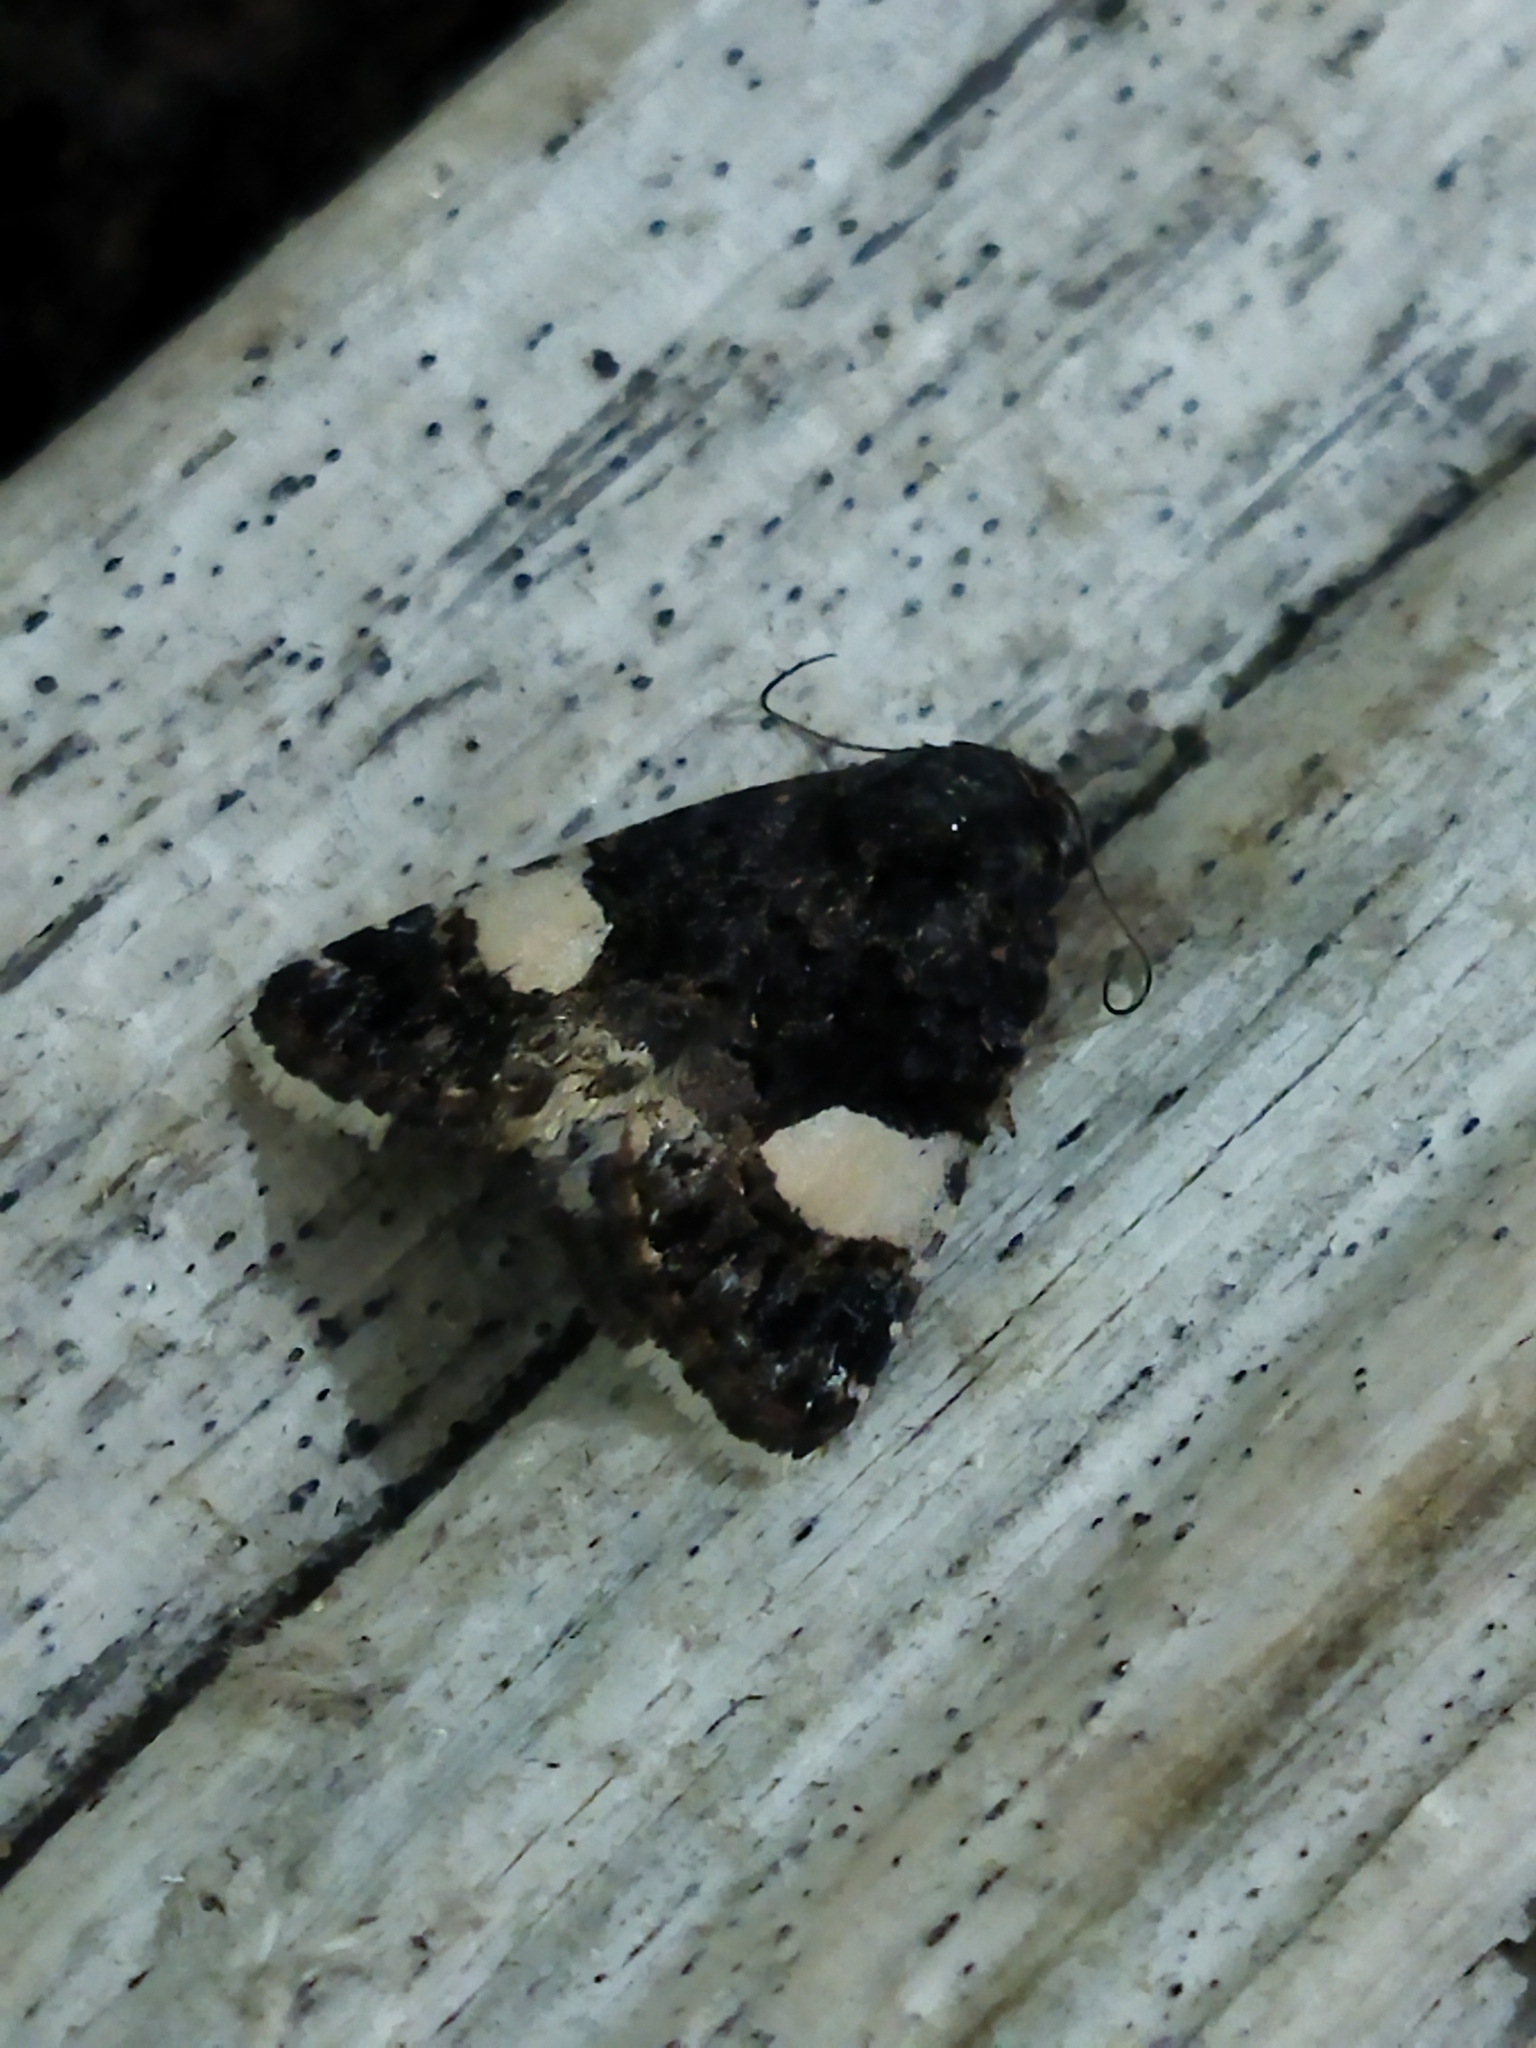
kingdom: Animalia
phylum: Arthropoda
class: Insecta
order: Lepidoptera
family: Erebidae
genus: Tyta
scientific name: Tyta luctuosa
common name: Four-spotted
